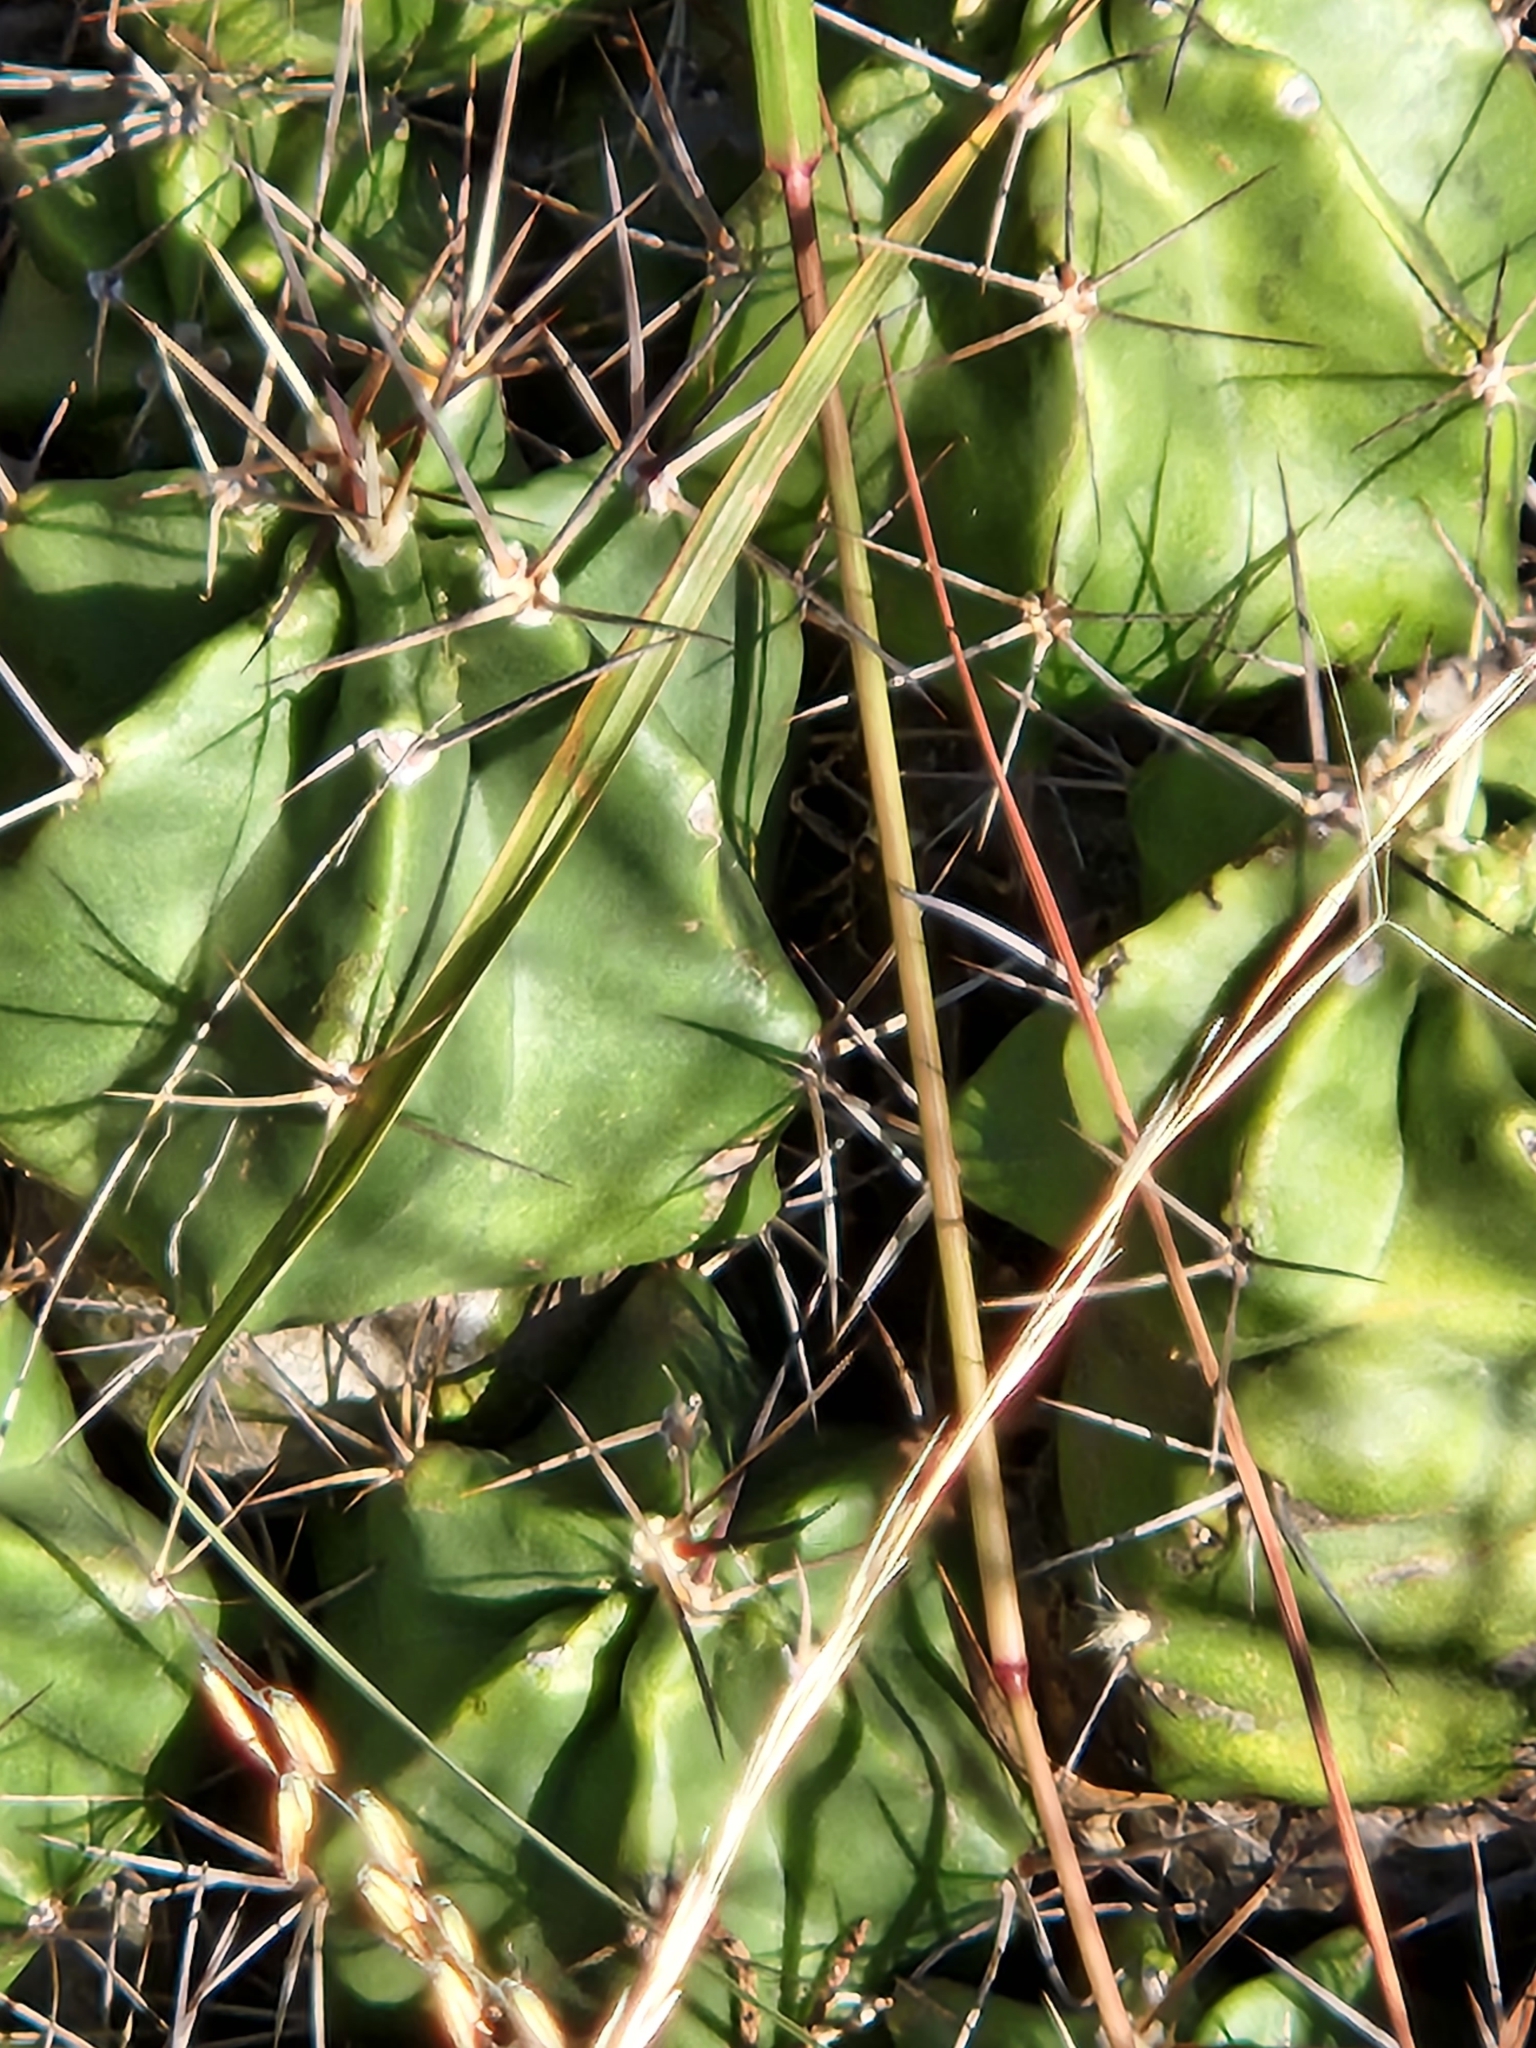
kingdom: Plantae
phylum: Tracheophyta
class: Magnoliopsida
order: Caryophyllales
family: Cactaceae
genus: Echinocereus
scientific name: Echinocereus coccineus
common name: Scarlet hedgehog cactus
